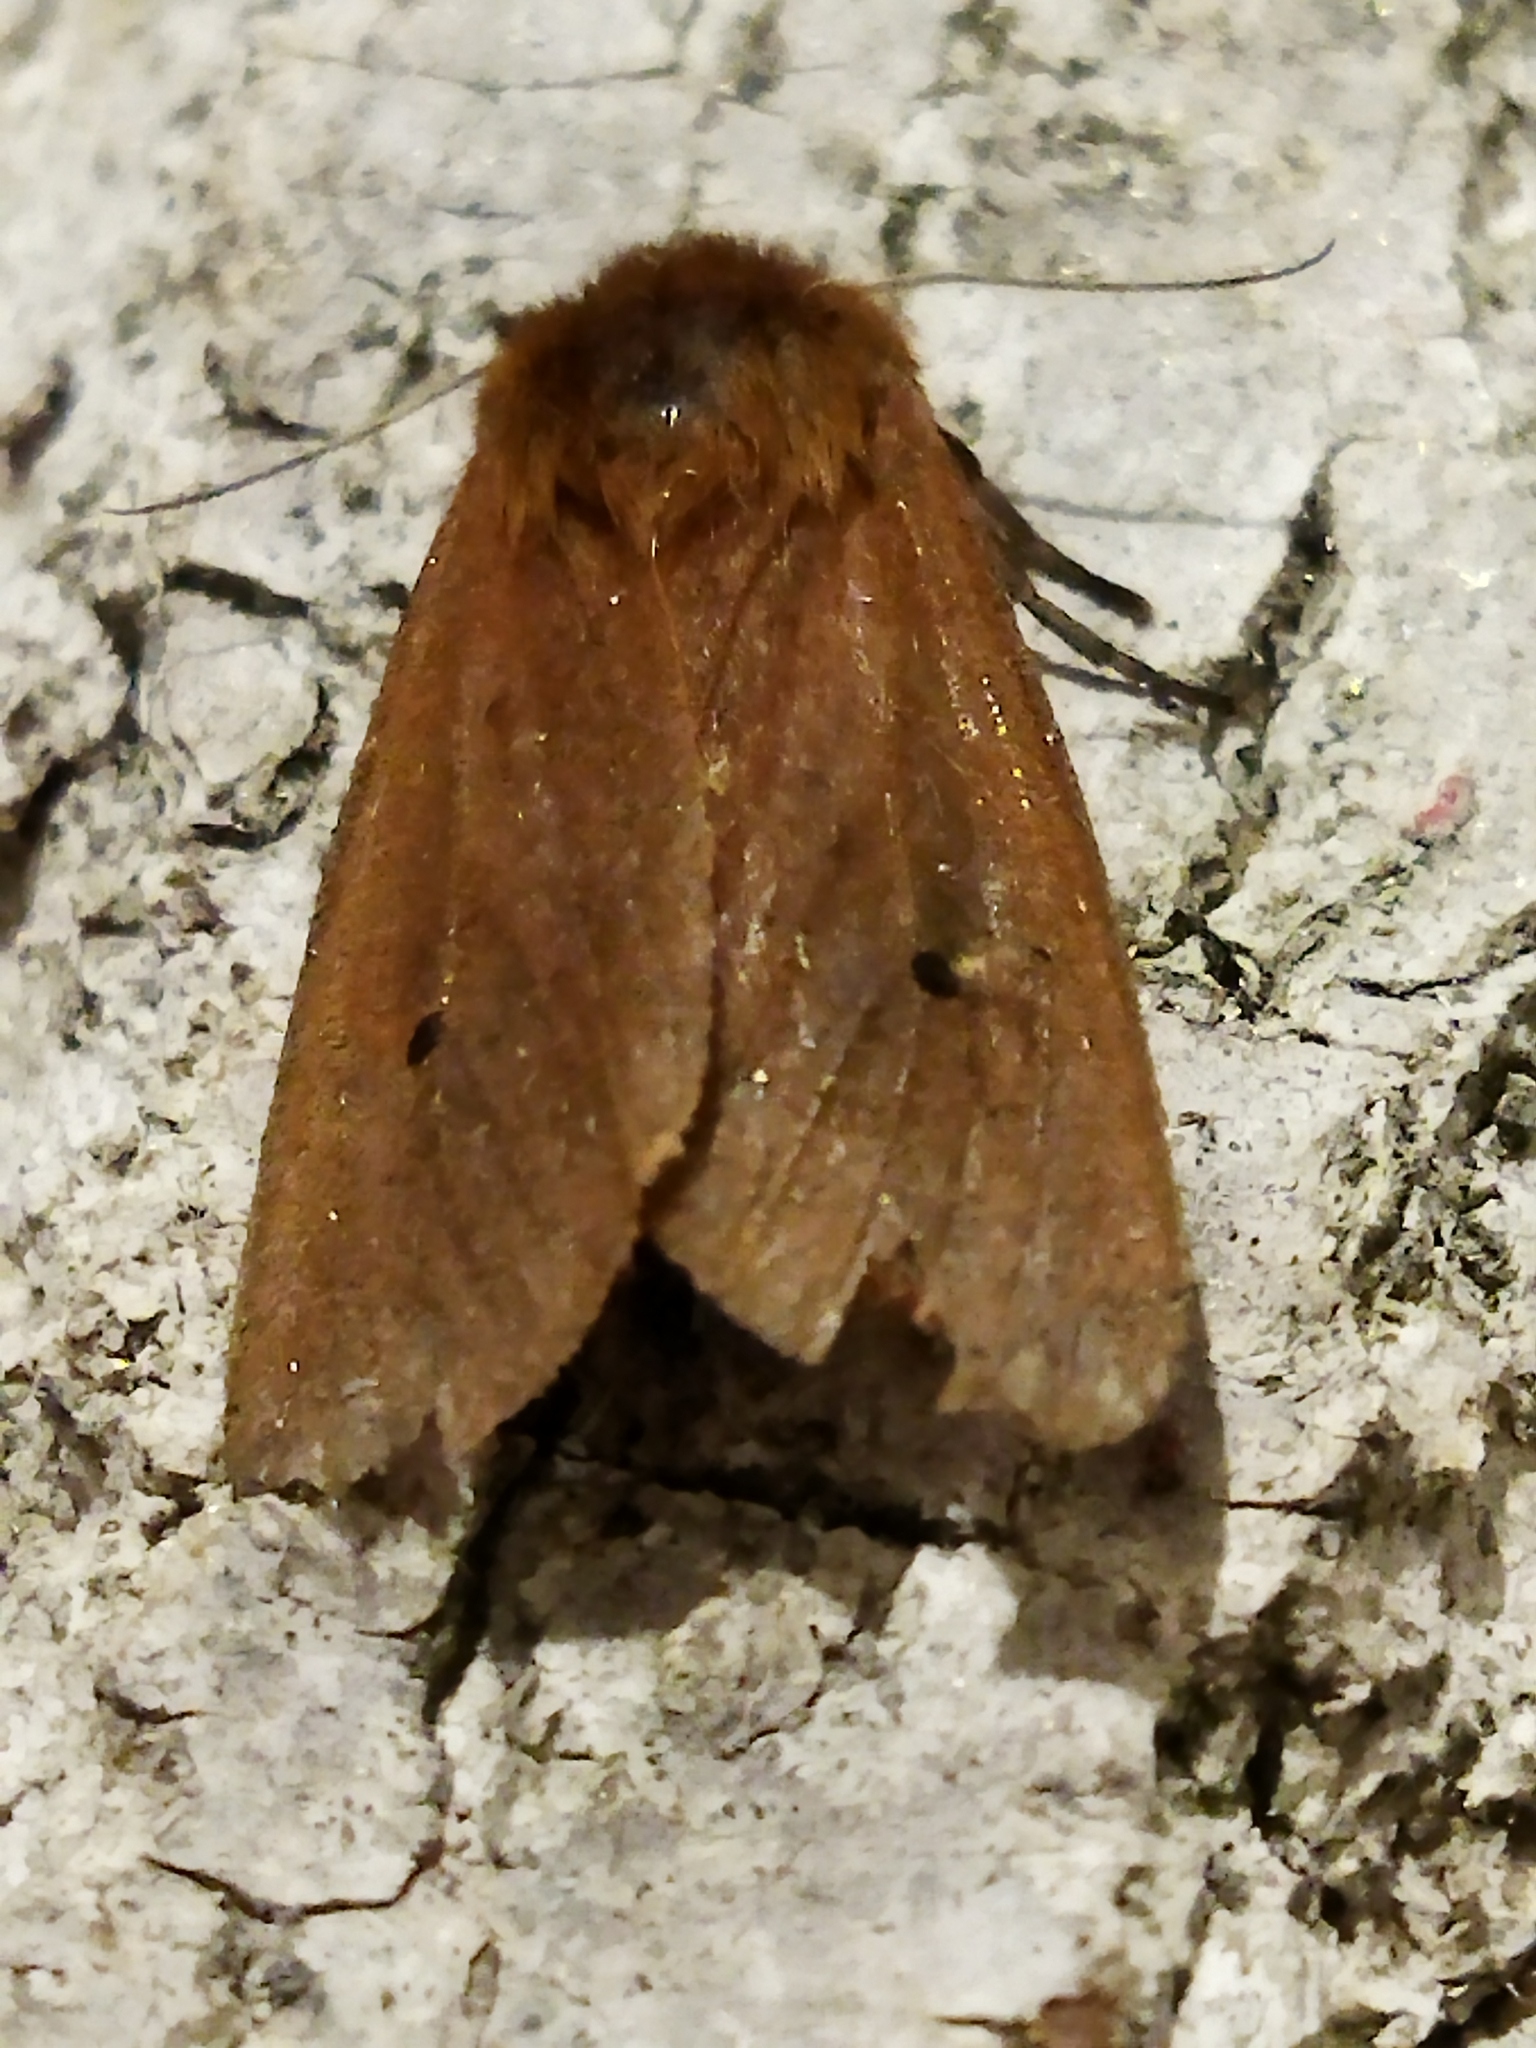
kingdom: Animalia
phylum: Arthropoda
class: Insecta
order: Lepidoptera
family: Erebidae
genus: Phragmatobia
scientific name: Phragmatobia fuliginosa
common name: Ruby tiger
